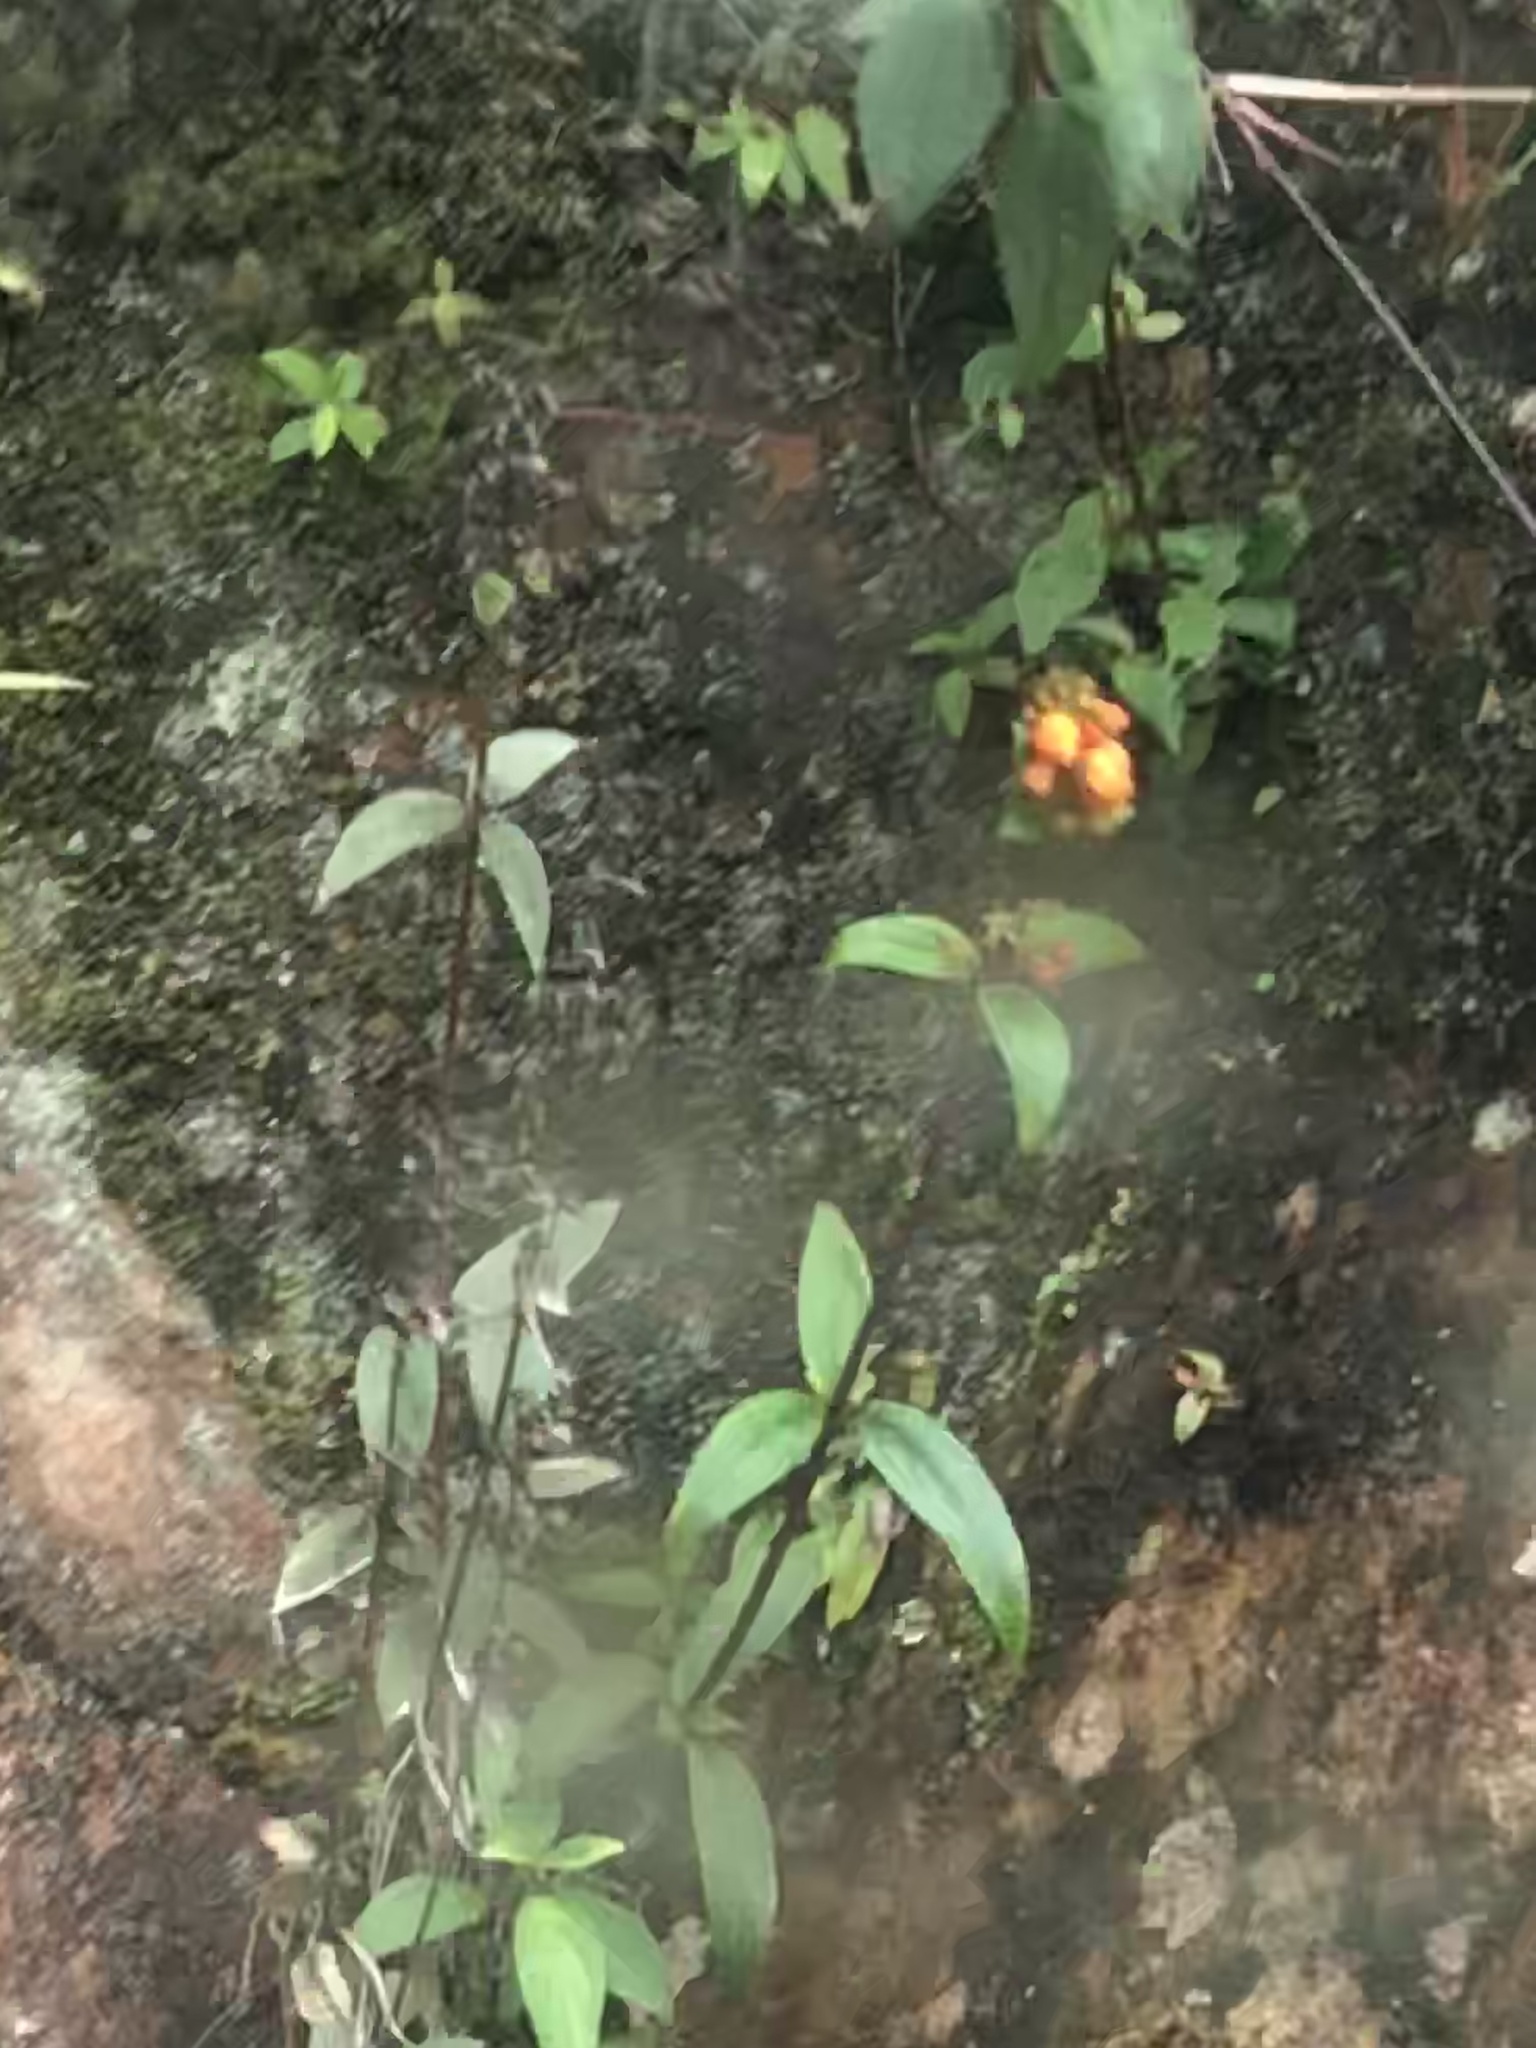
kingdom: Plantae
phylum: Tracheophyta
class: Magnoliopsida
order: Lamiales
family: Gesneriaceae
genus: Seemannia
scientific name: Seemannia sylvatica
